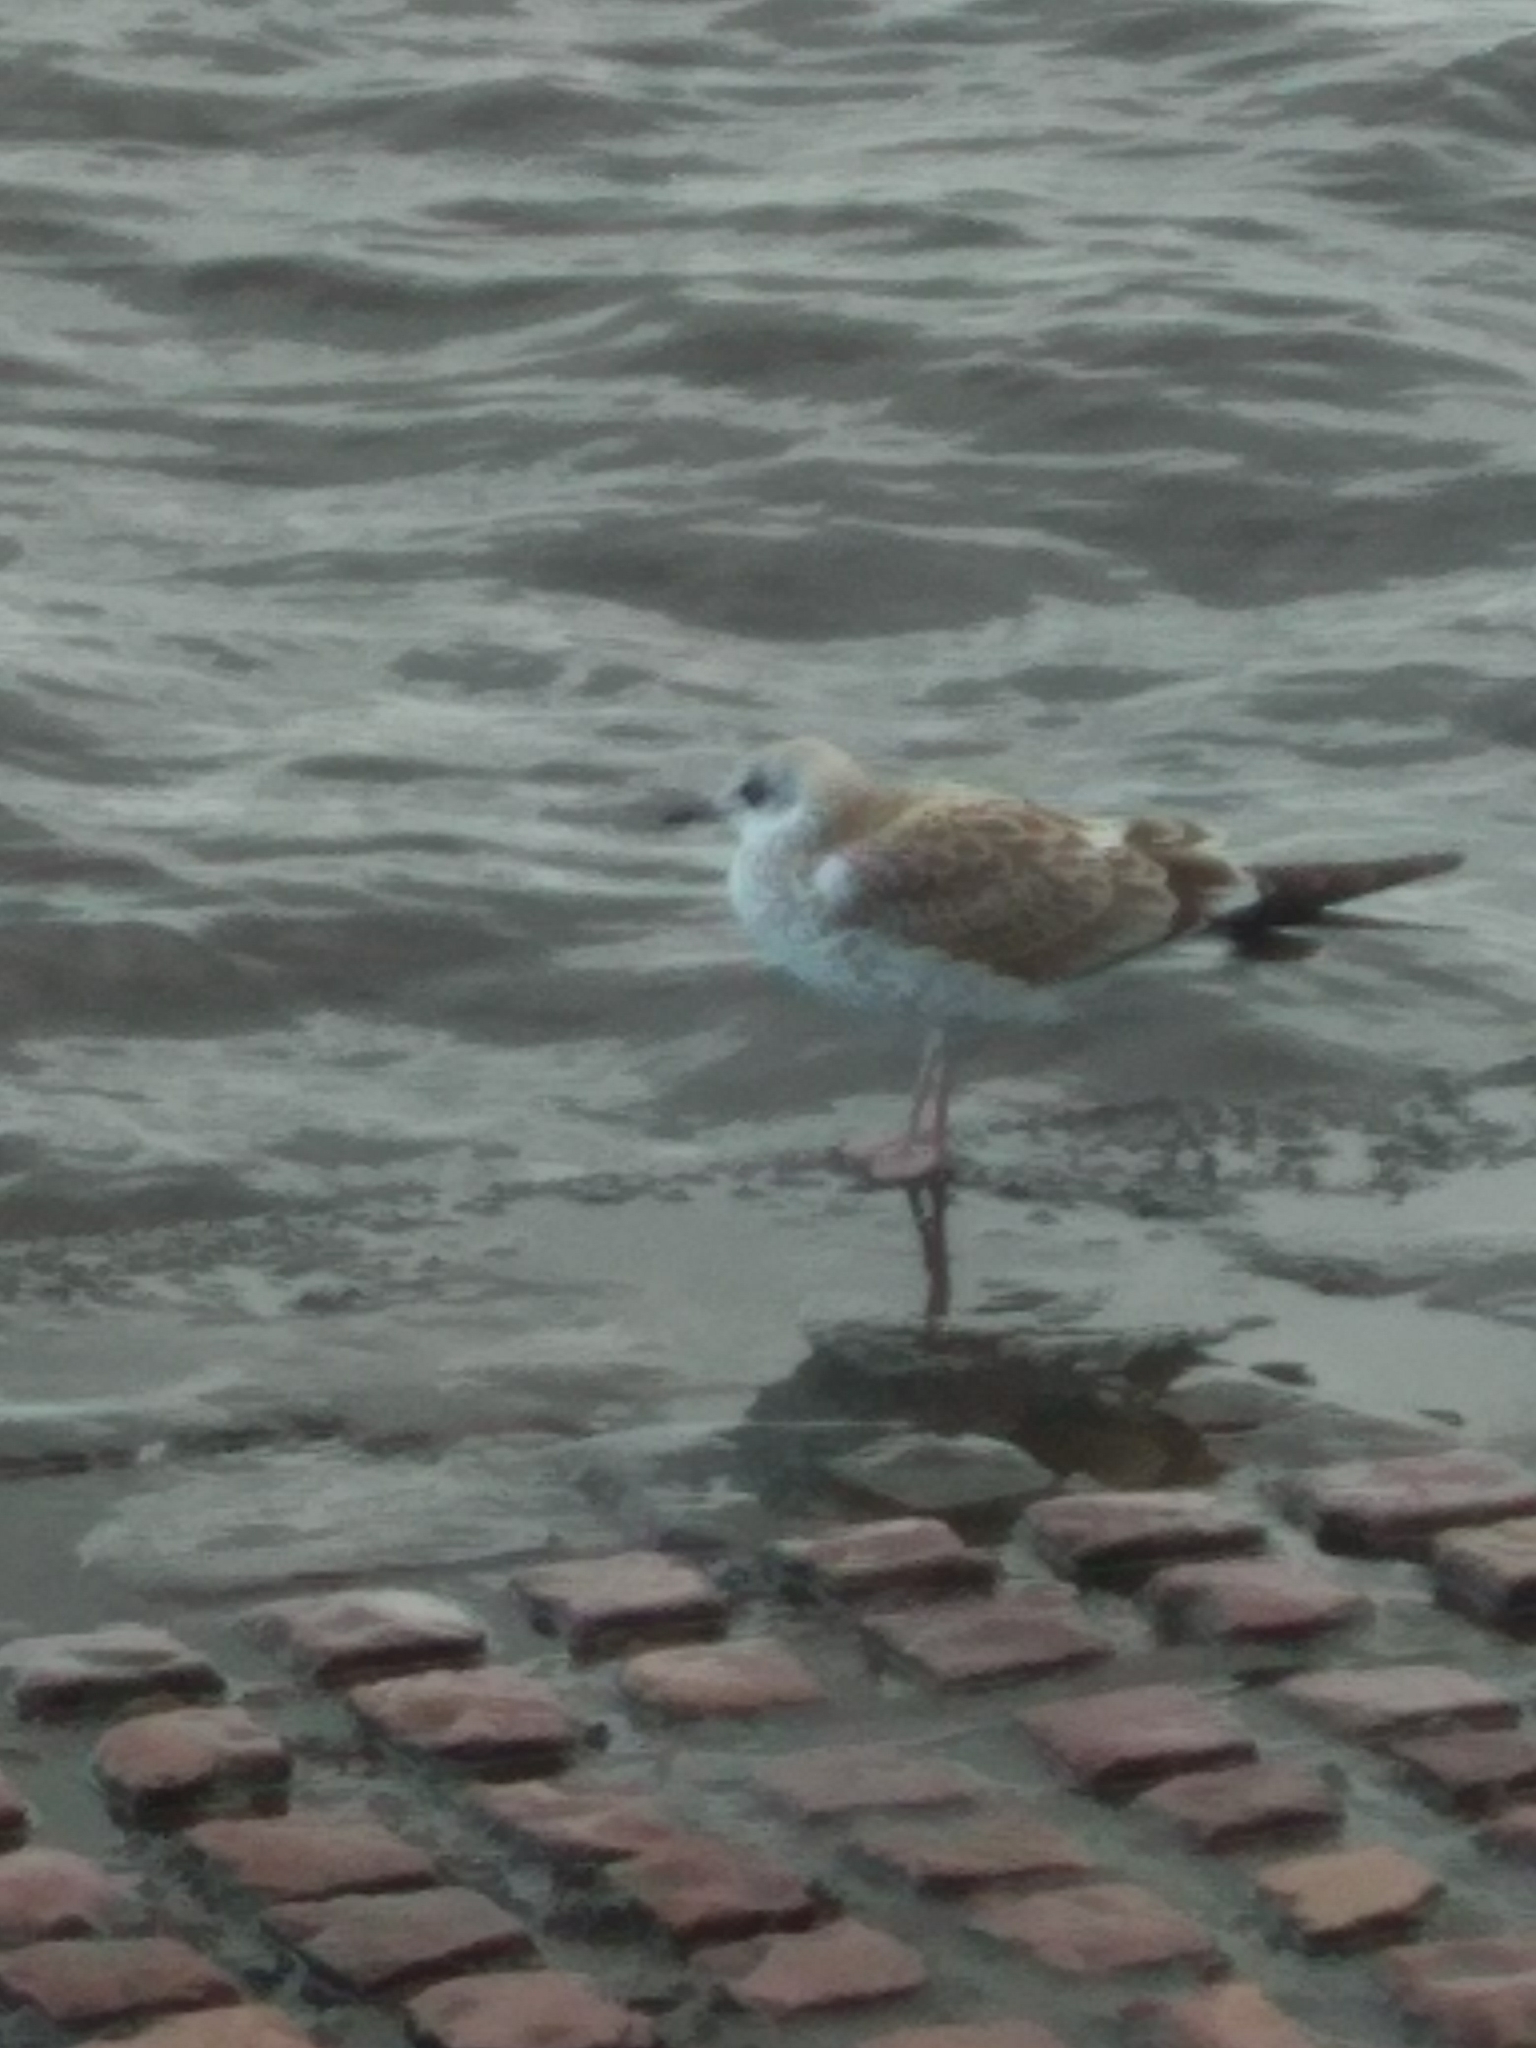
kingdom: Animalia
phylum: Chordata
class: Aves
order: Charadriiformes
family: Laridae
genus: Larus
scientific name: Larus canus
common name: Mew gull
